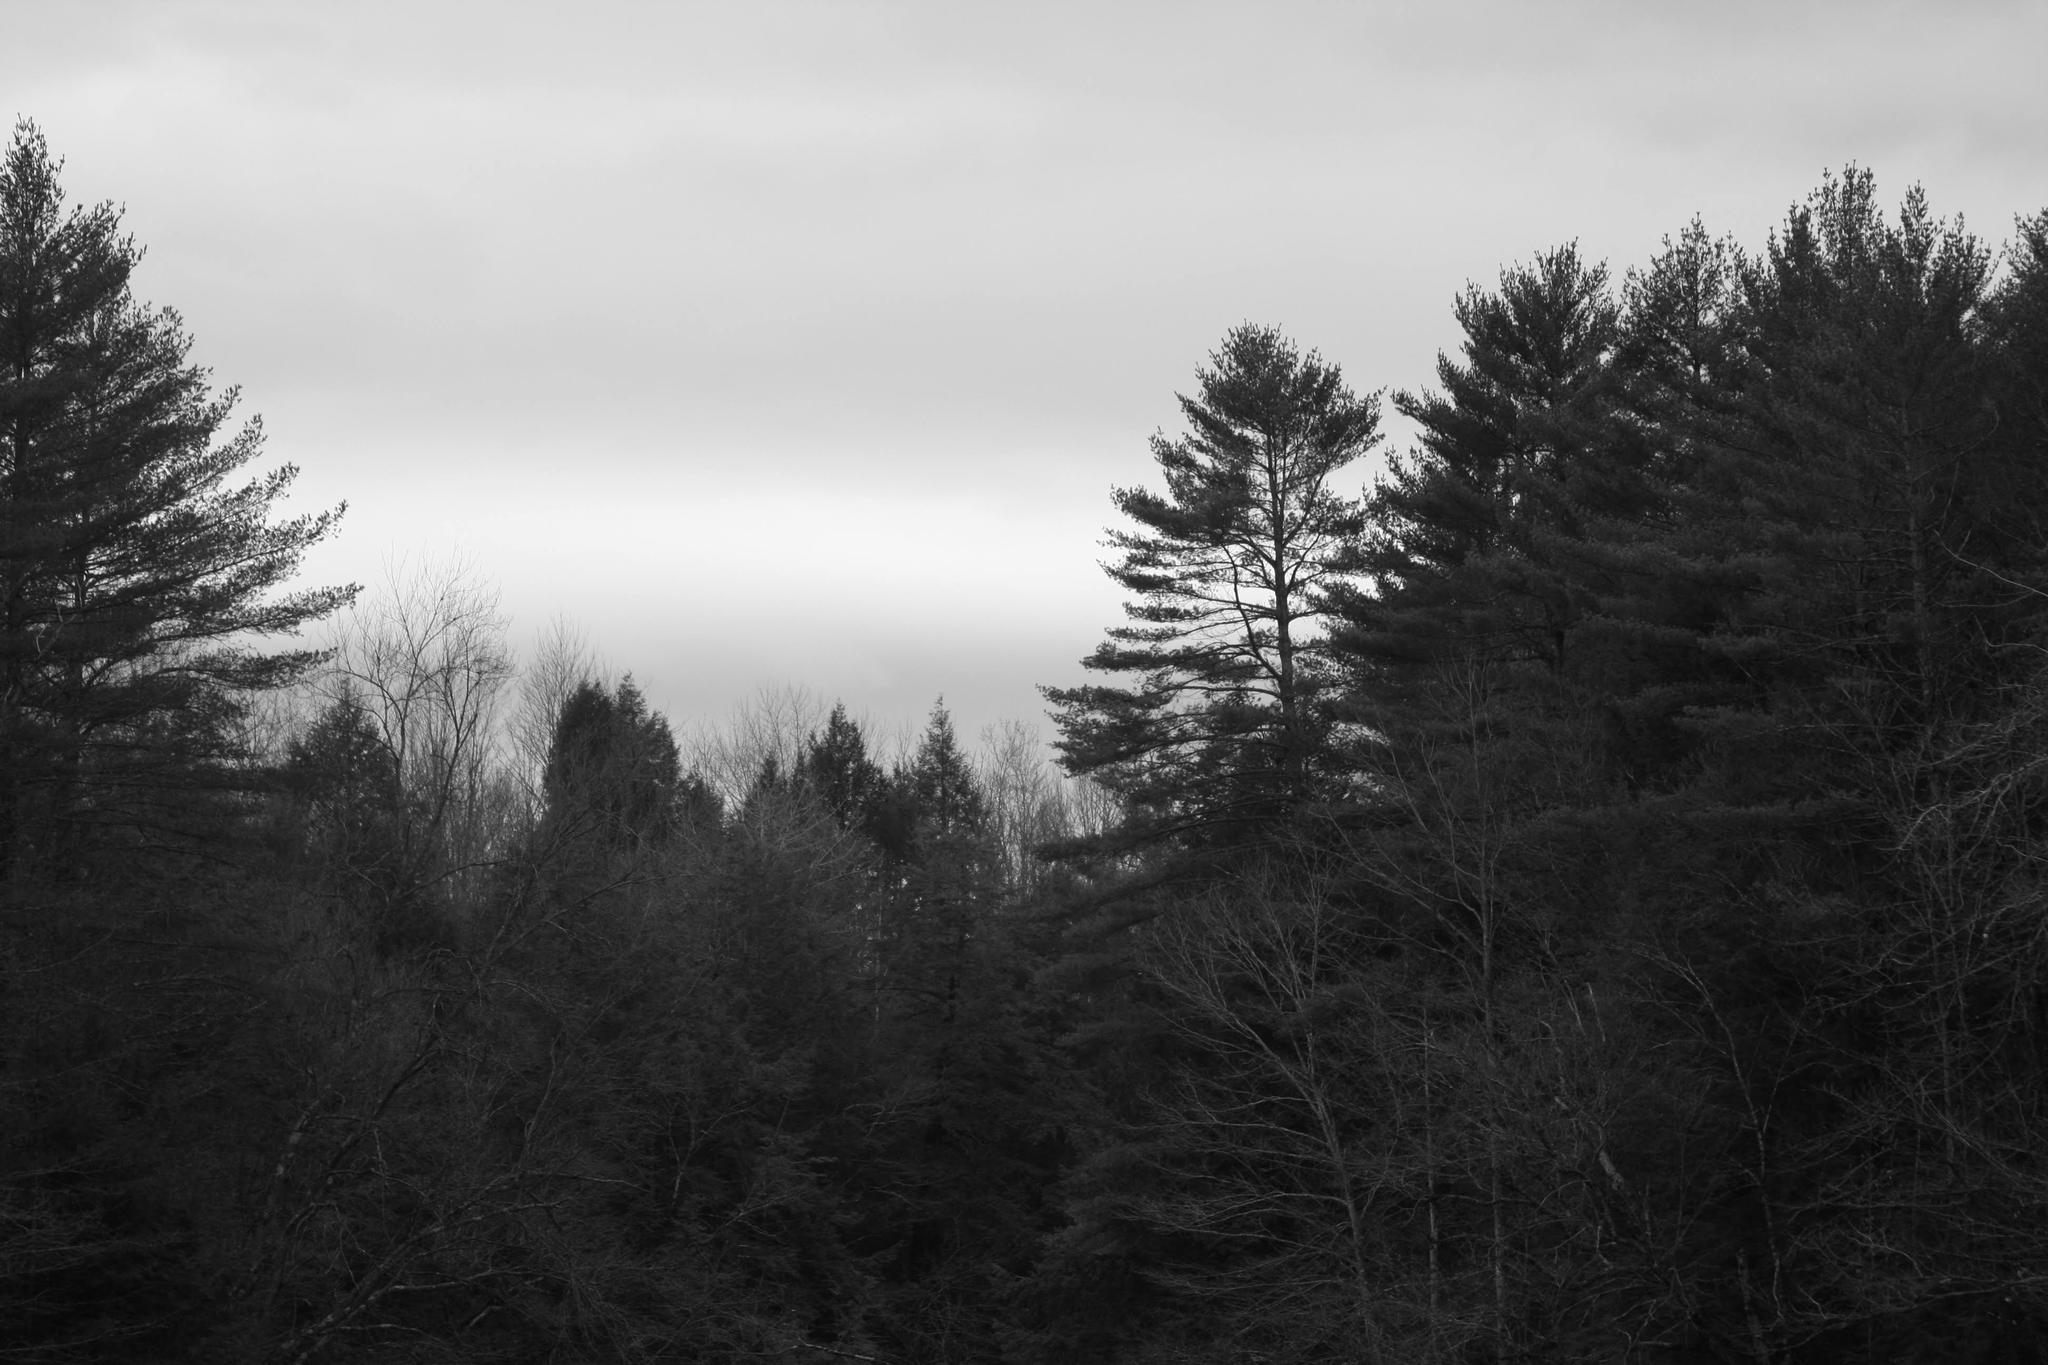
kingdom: Plantae
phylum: Tracheophyta
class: Pinopsida
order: Pinales
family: Pinaceae
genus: Pinus
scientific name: Pinus strobus
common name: Weymouth pine
